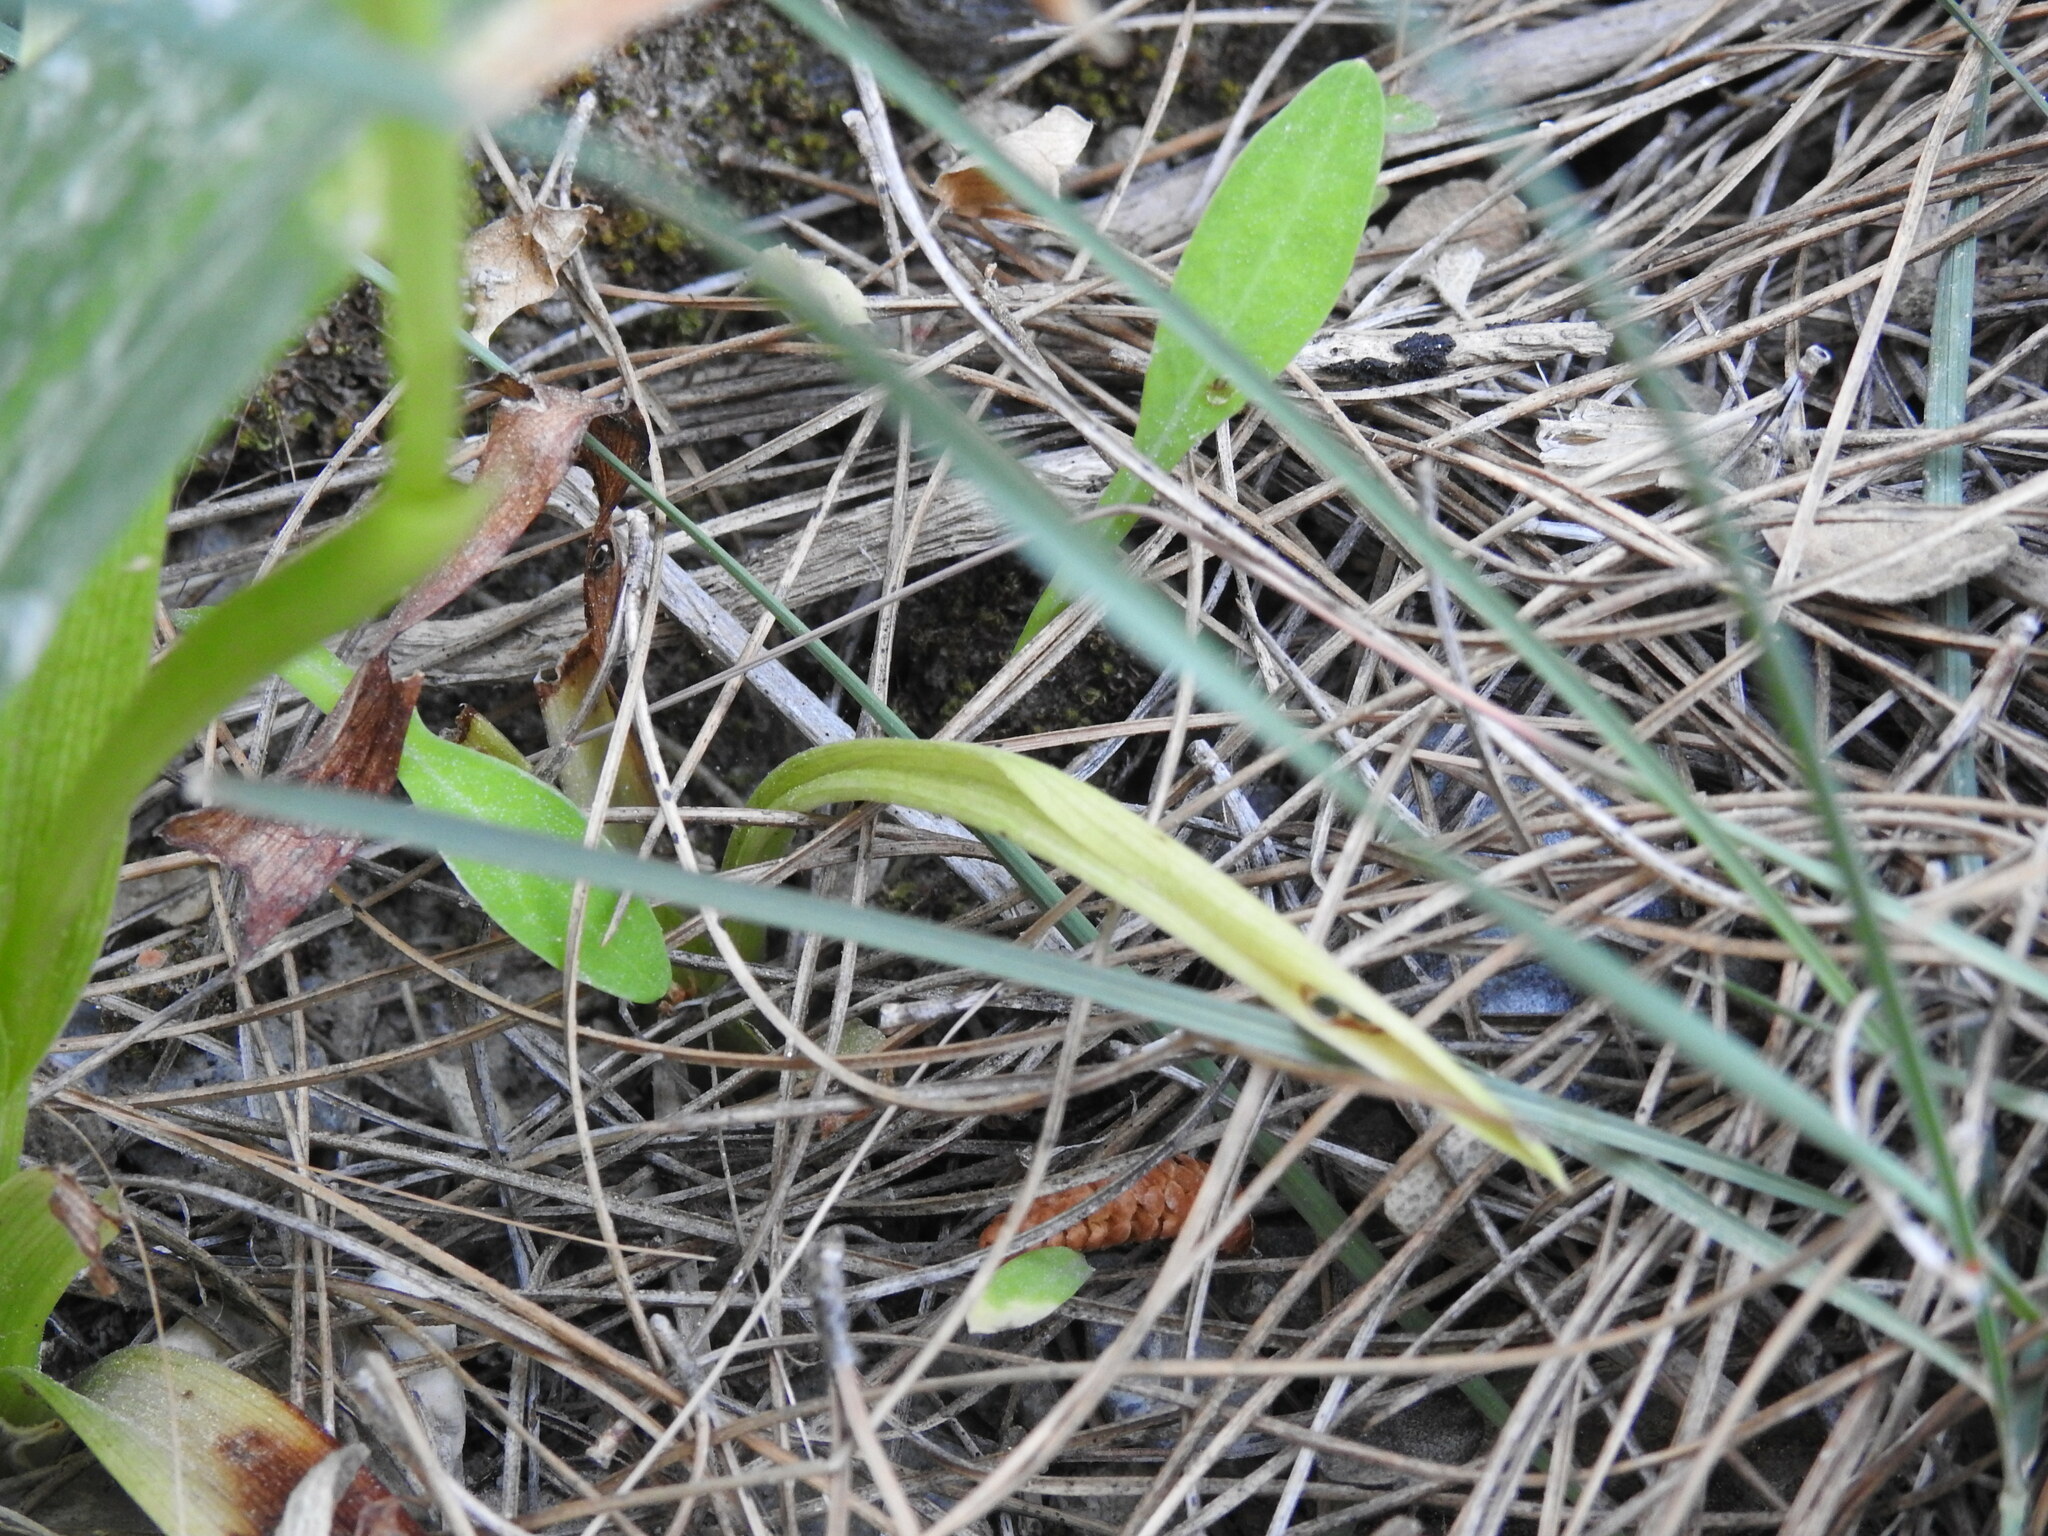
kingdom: Plantae
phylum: Tracheophyta
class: Liliopsida
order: Asparagales
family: Orchidaceae
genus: Anacamptis
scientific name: Anacamptis pyramidalis
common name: Pyramidal orchid
